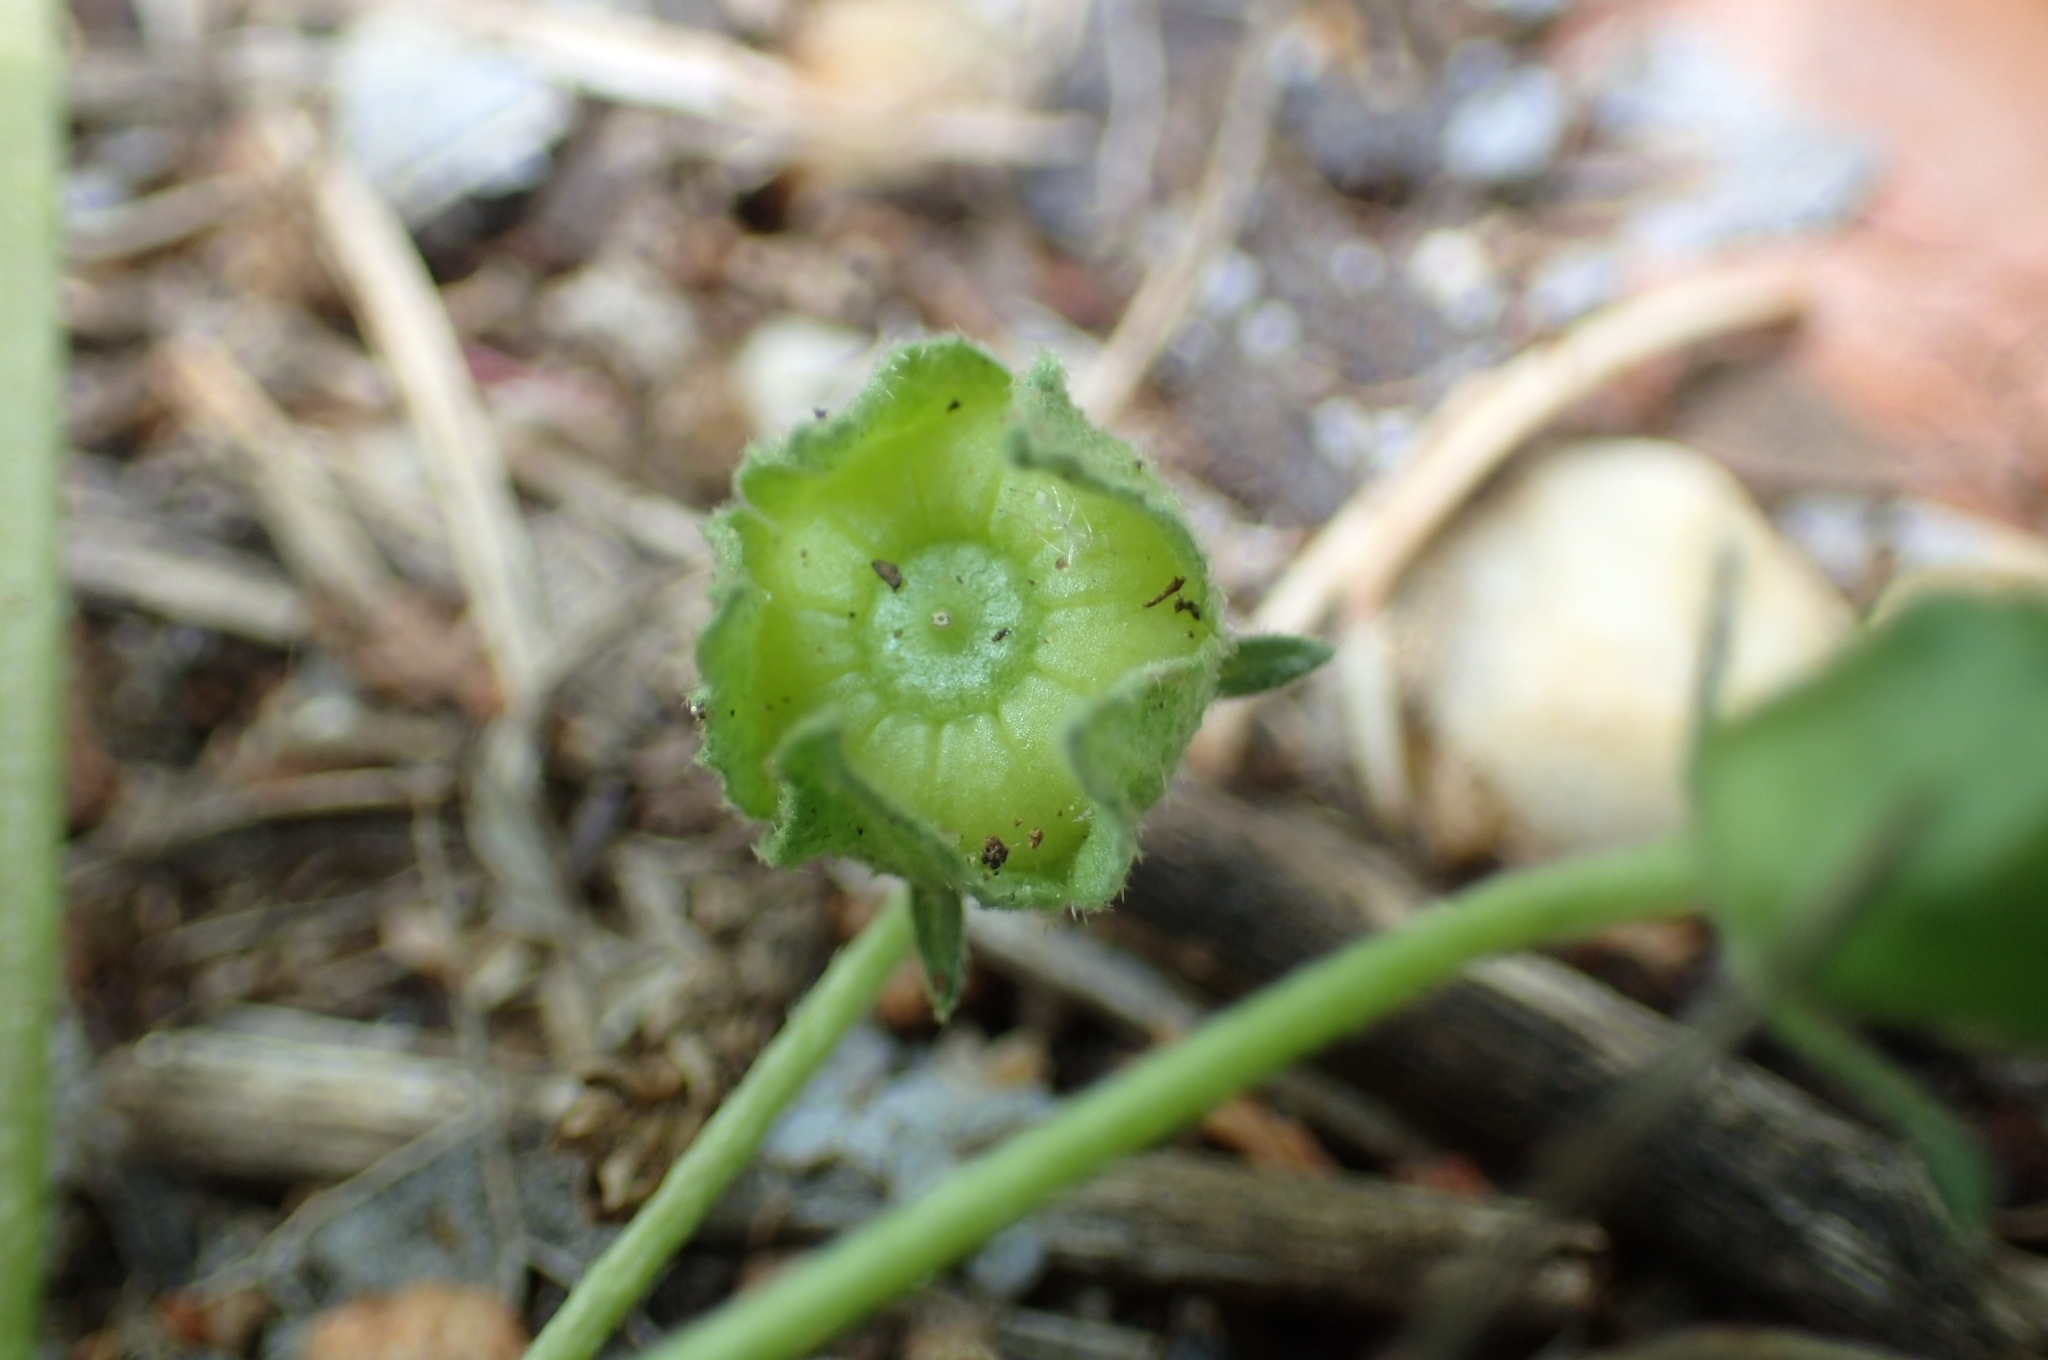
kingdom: Plantae
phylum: Tracheophyta
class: Magnoliopsida
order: Malvales
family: Malvaceae
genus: Malva
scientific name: Malva neglecta
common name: Common mallow
